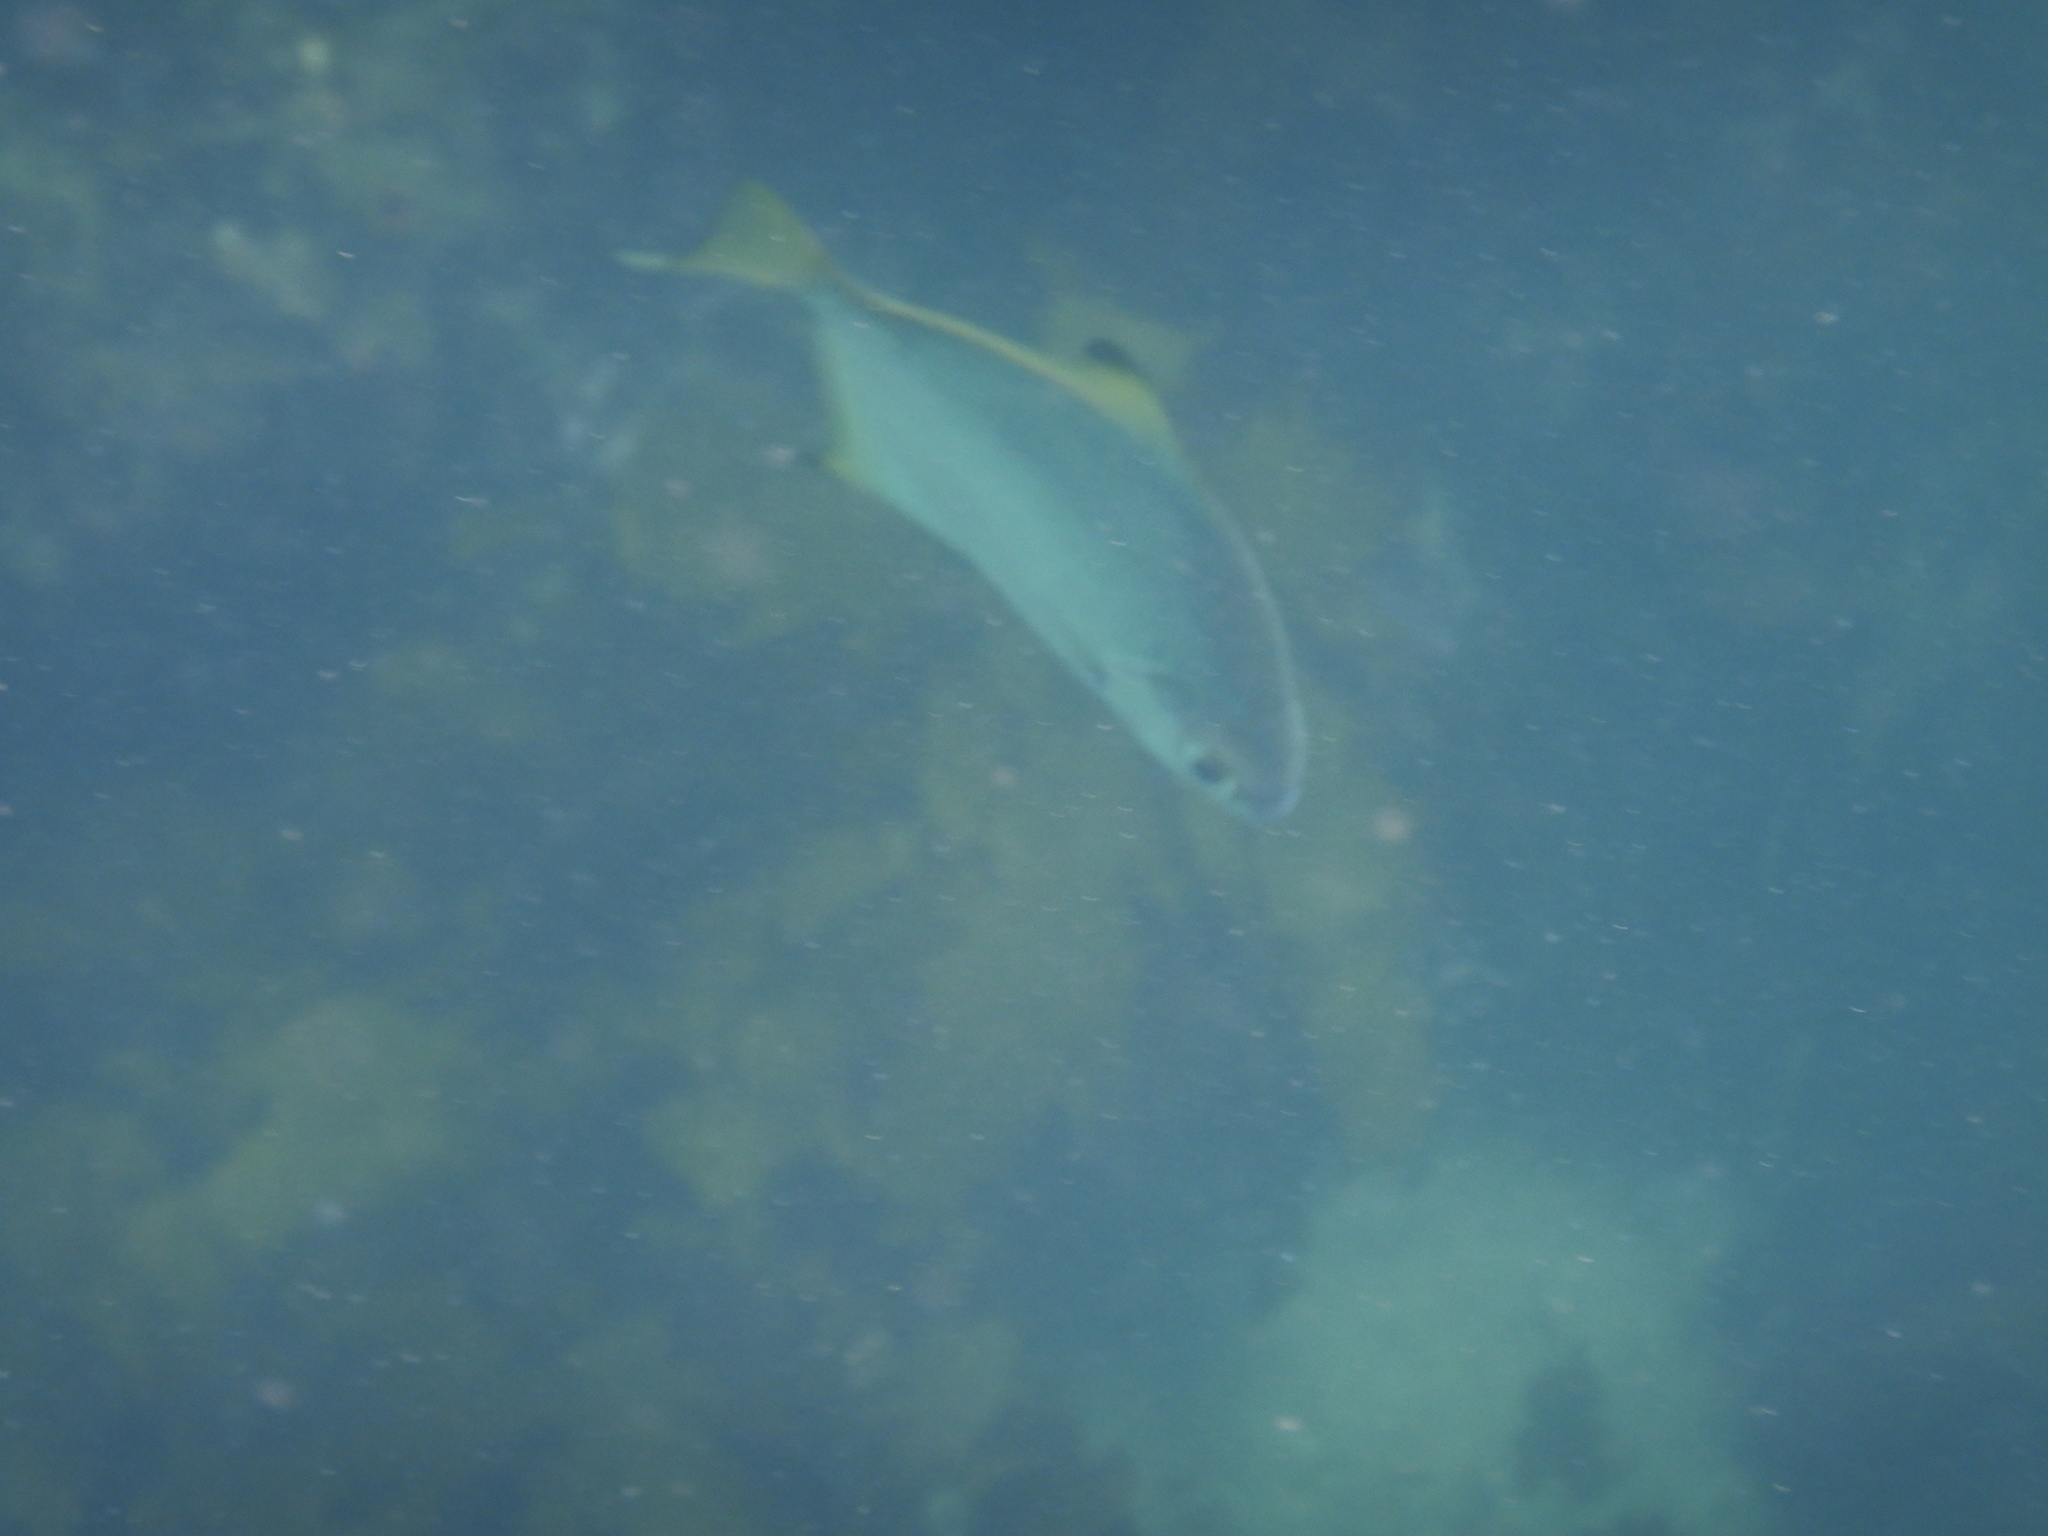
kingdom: Animalia
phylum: Chordata
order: Perciformes
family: Monodactylidae
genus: Monodactylus
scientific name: Monodactylus argenteus
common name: Silver moony
